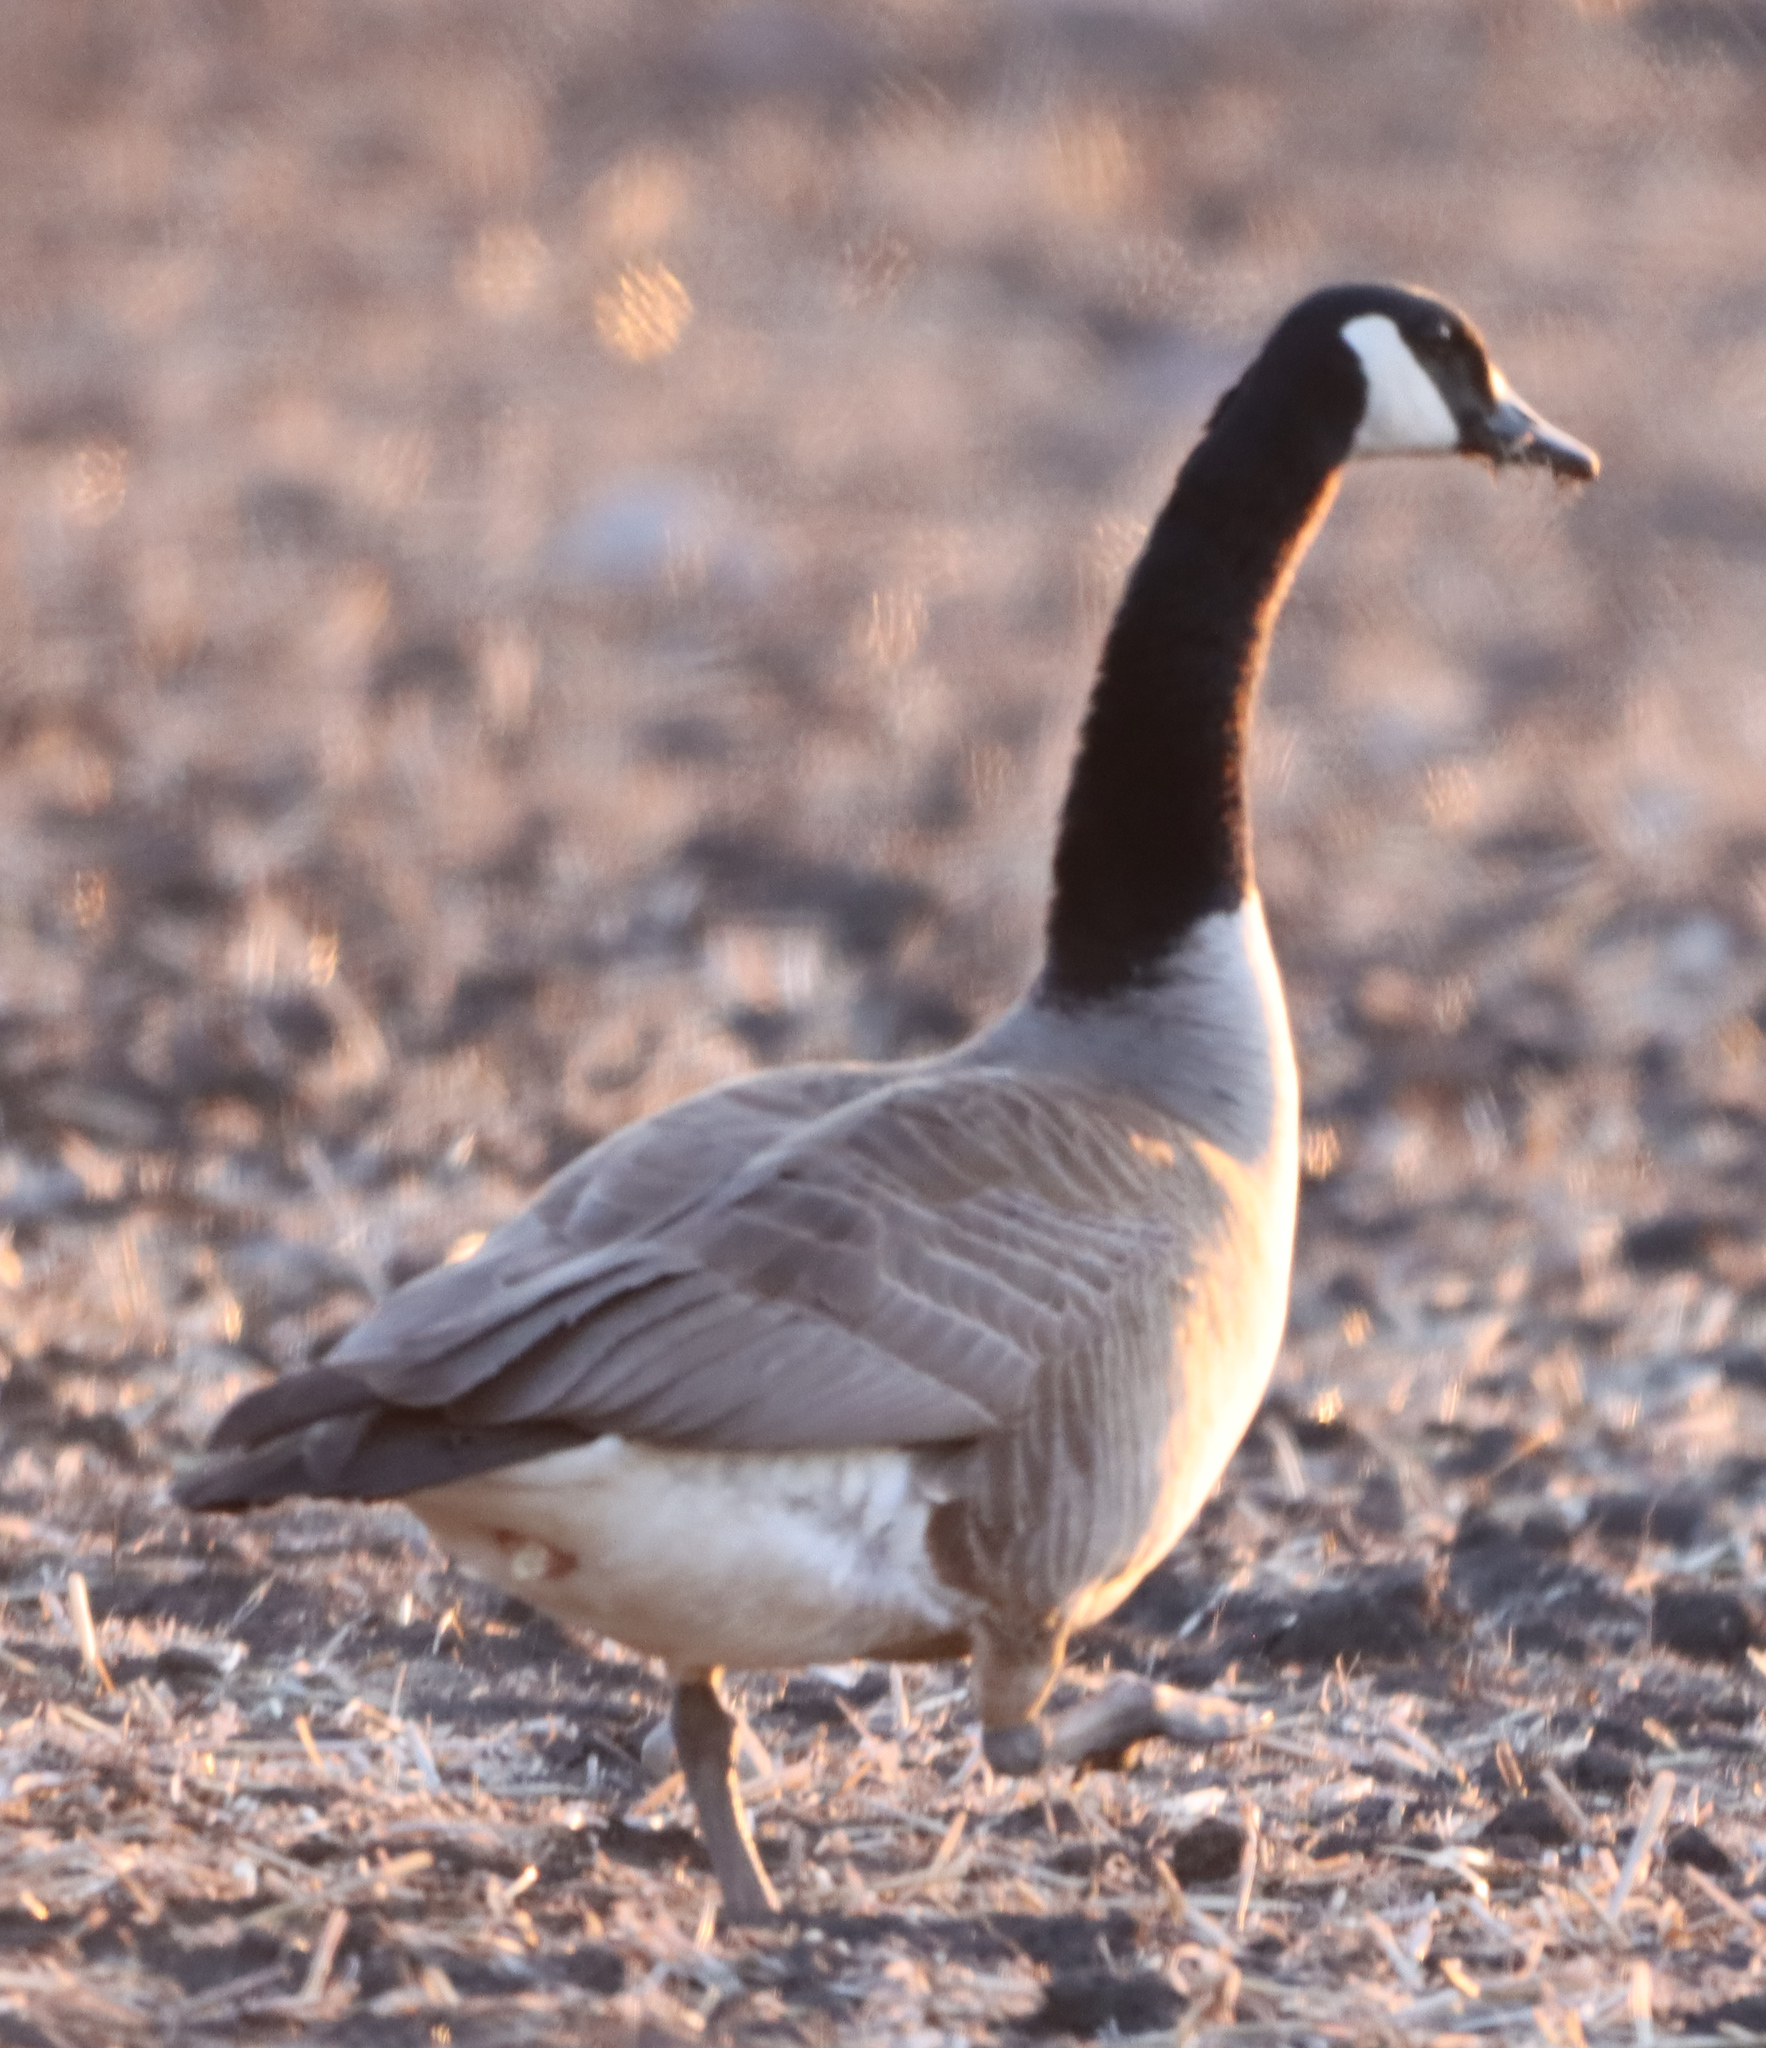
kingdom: Animalia
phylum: Chordata
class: Aves
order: Anseriformes
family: Anatidae
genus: Branta
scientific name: Branta canadensis
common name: Canada goose
